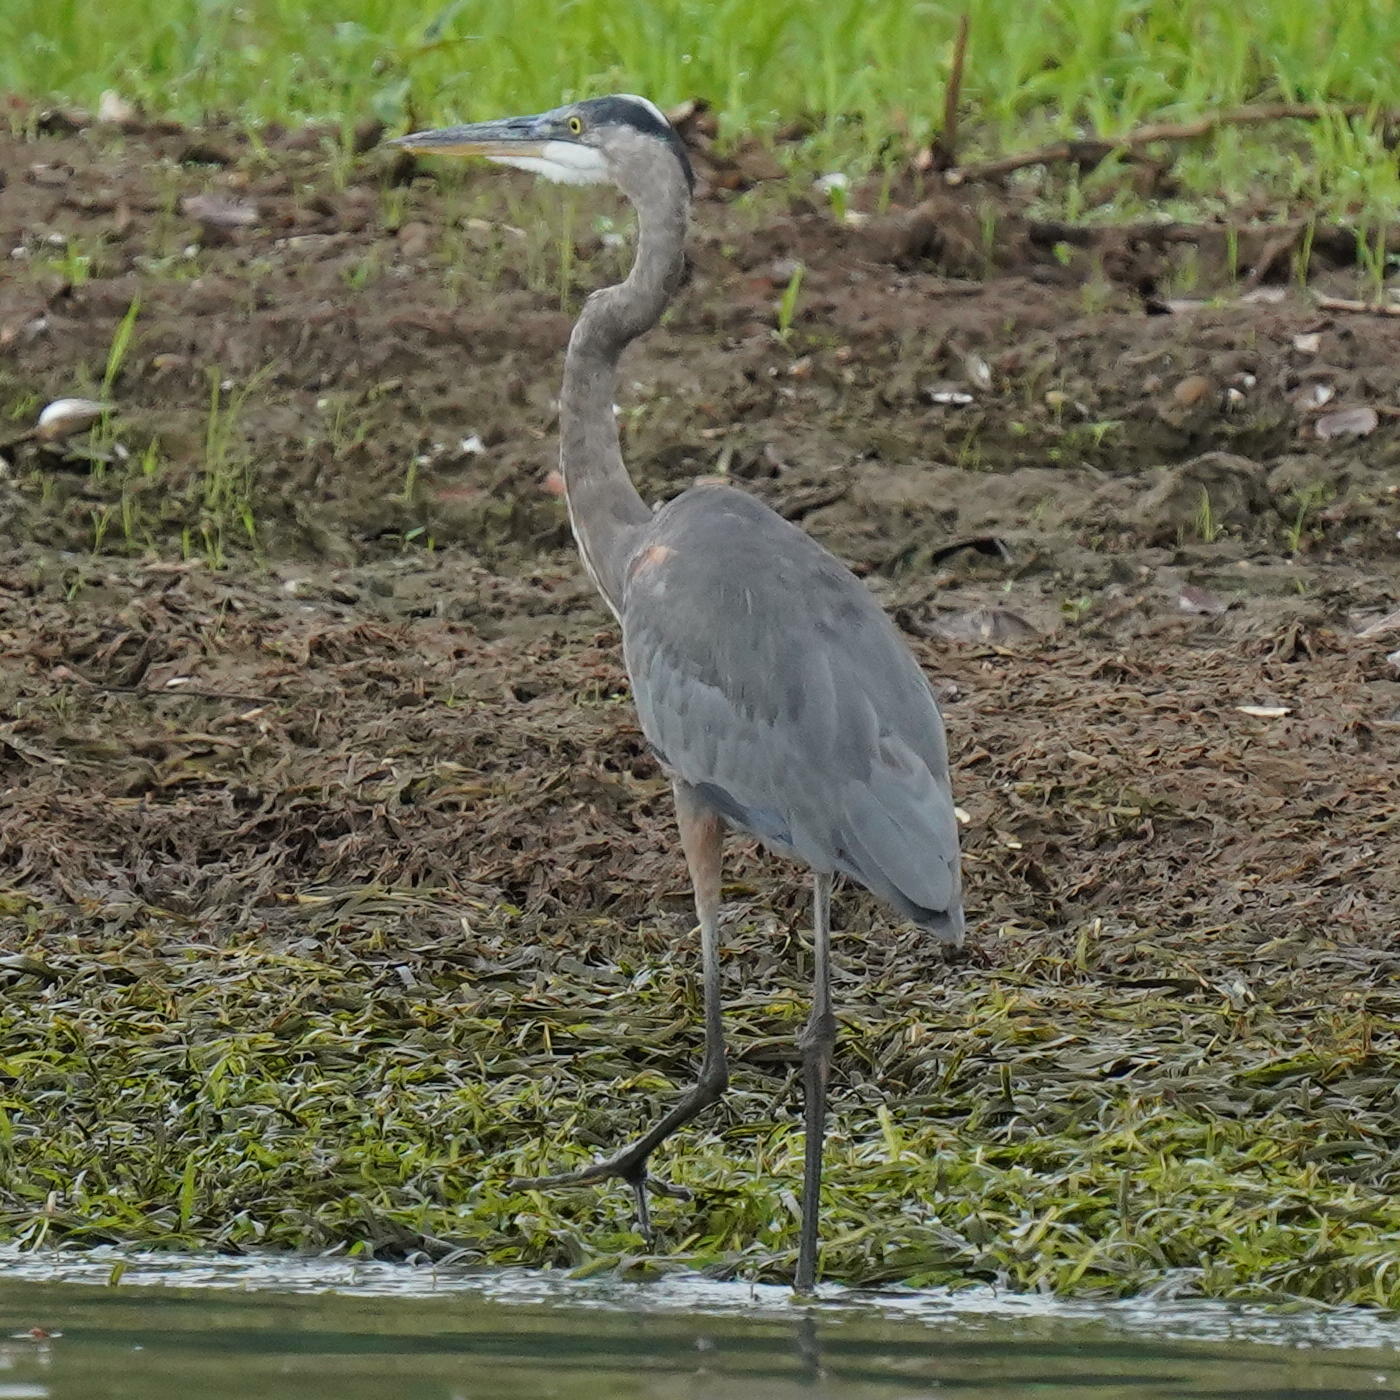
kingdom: Animalia
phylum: Chordata
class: Aves
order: Pelecaniformes
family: Ardeidae
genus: Ardea
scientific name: Ardea herodias
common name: Great blue heron
